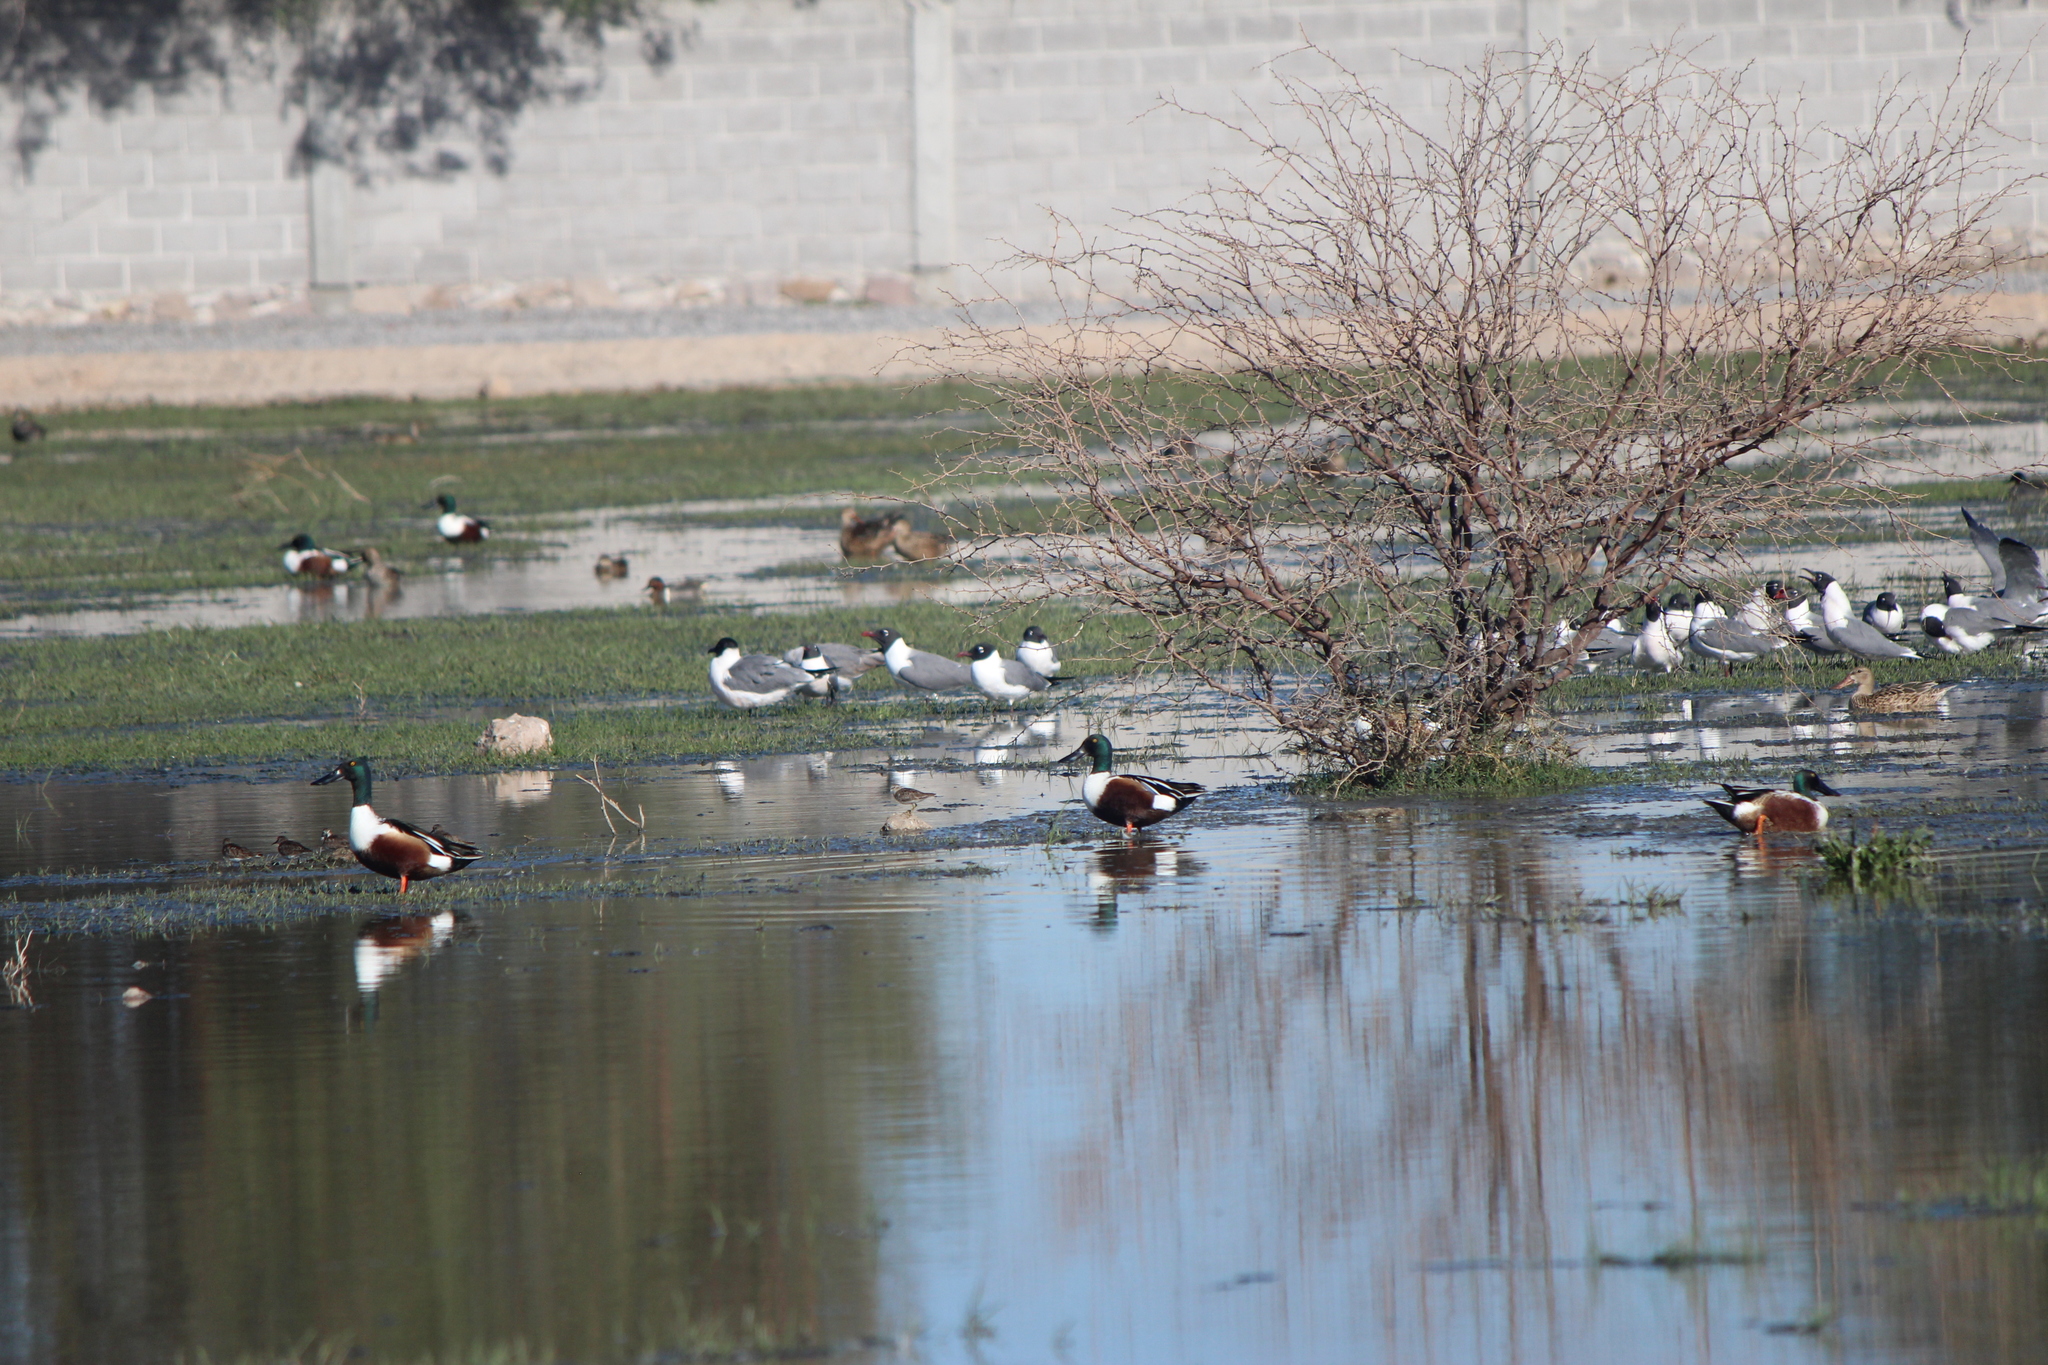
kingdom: Animalia
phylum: Chordata
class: Aves
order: Anseriformes
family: Anatidae
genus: Spatula
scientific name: Spatula clypeata
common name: Northern shoveler
